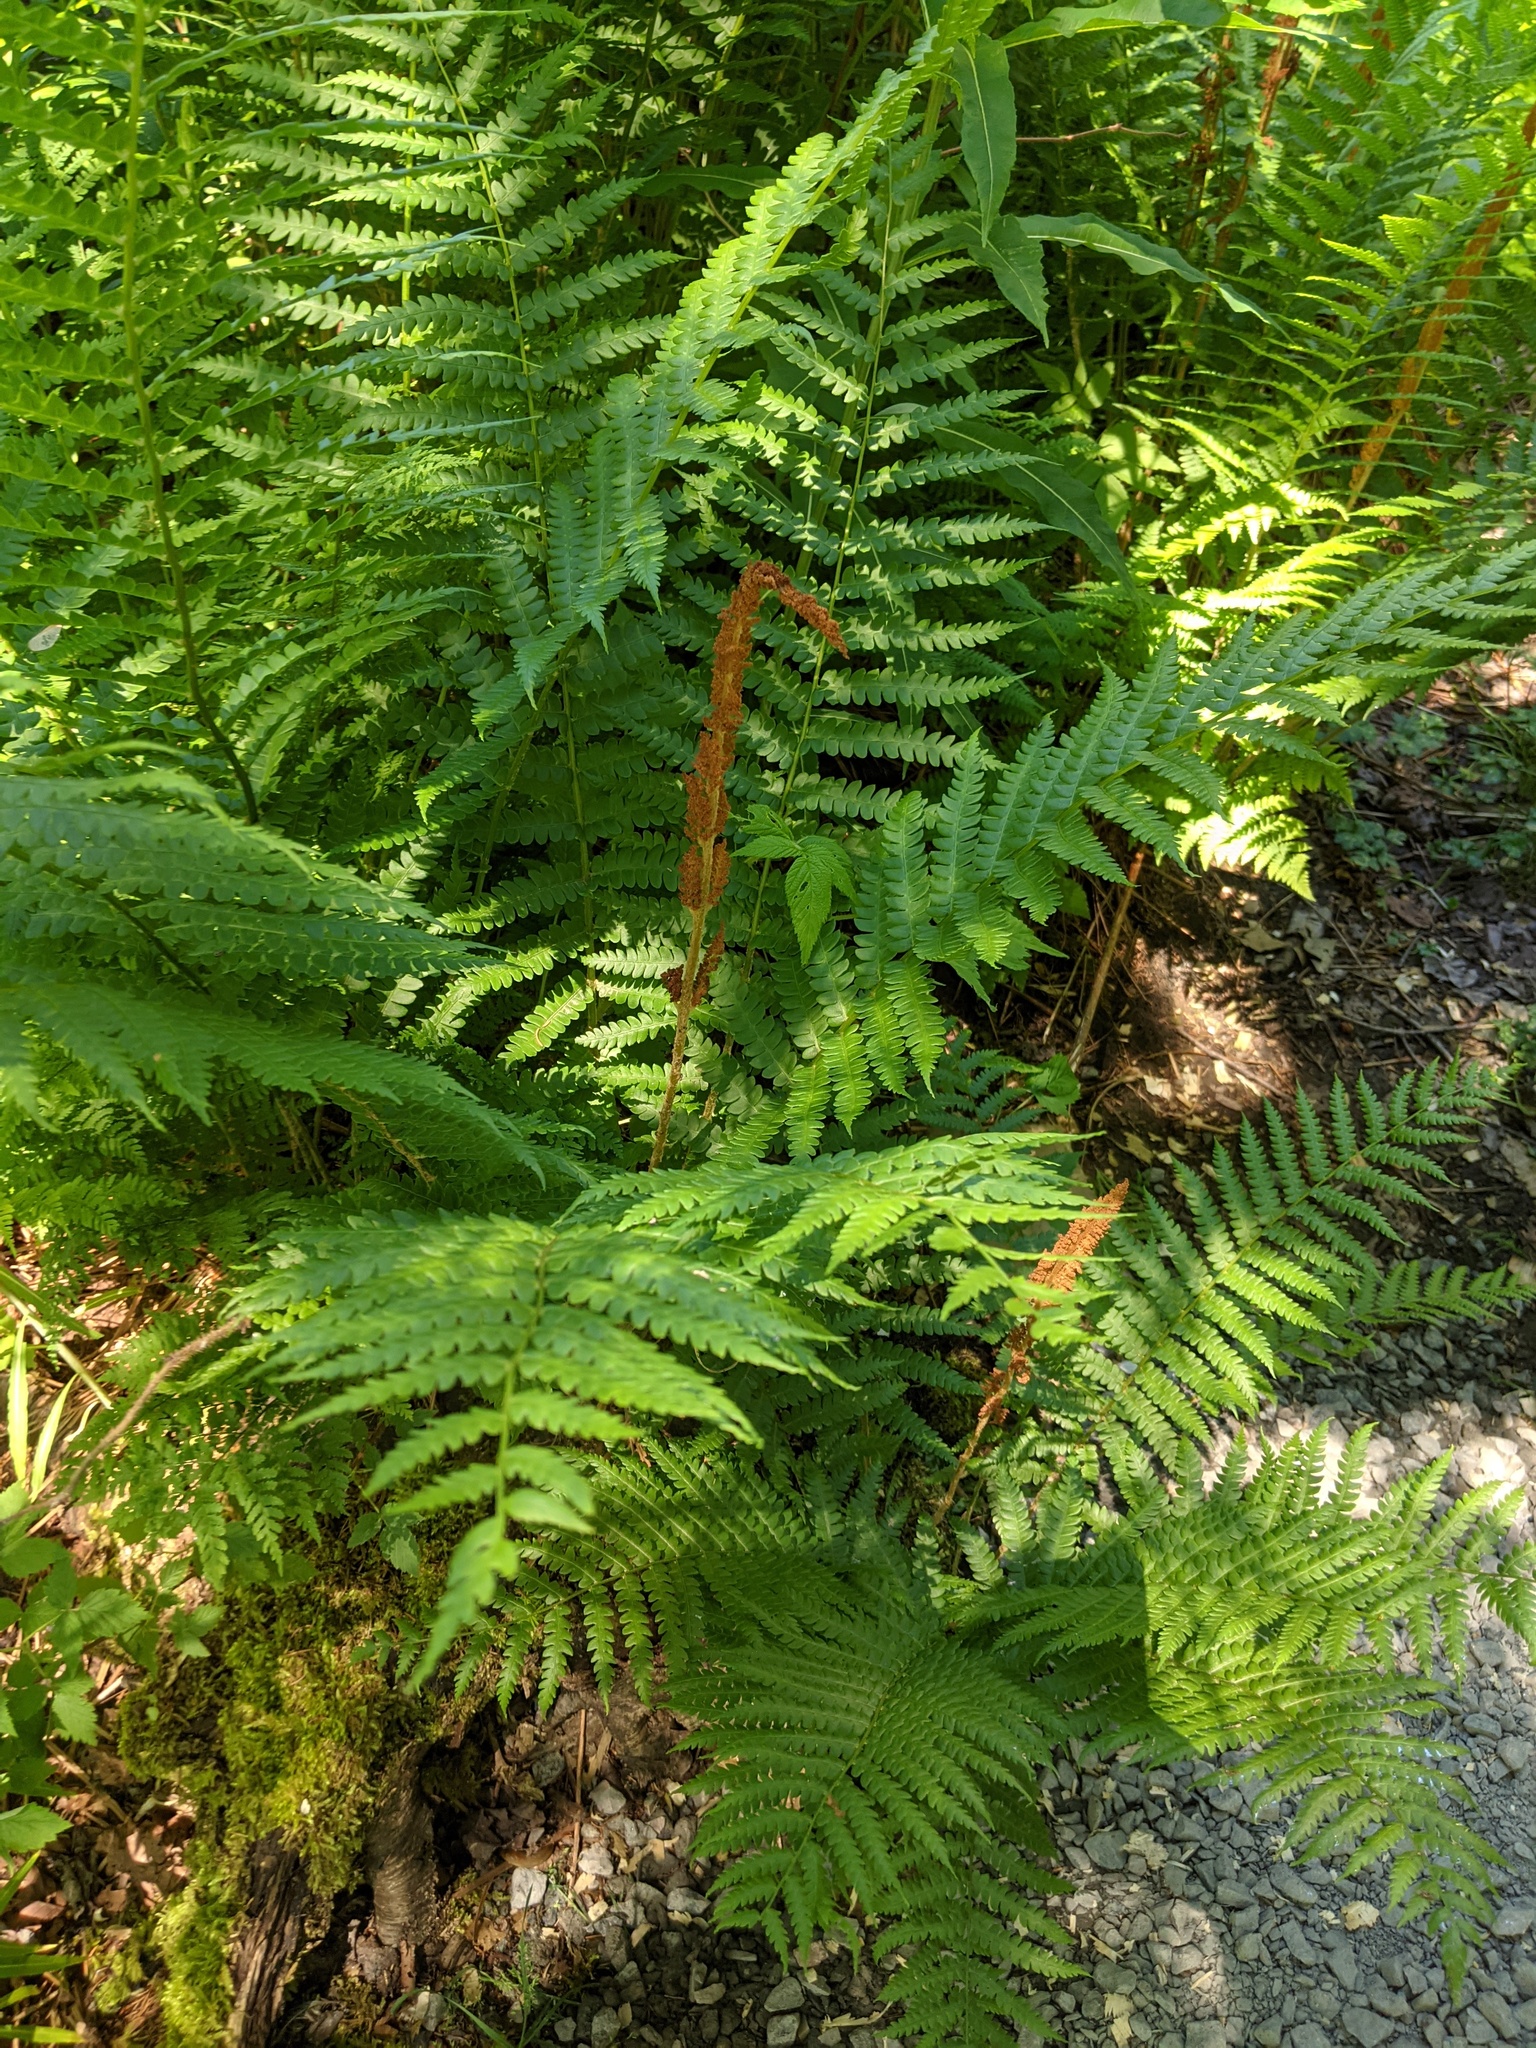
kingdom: Plantae
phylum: Tracheophyta
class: Polypodiopsida
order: Osmundales
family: Osmundaceae
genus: Osmundastrum
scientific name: Osmundastrum cinnamomeum
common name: Cinnamon fern
